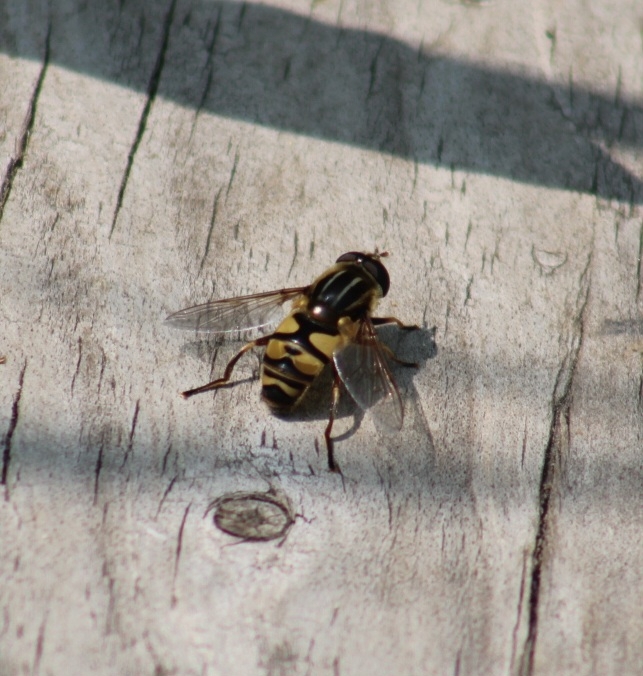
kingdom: Animalia
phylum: Arthropoda
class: Insecta
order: Diptera
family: Syrphidae
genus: Helophilus
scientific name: Helophilus fasciatus
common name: Narrow-headed marsh fly
